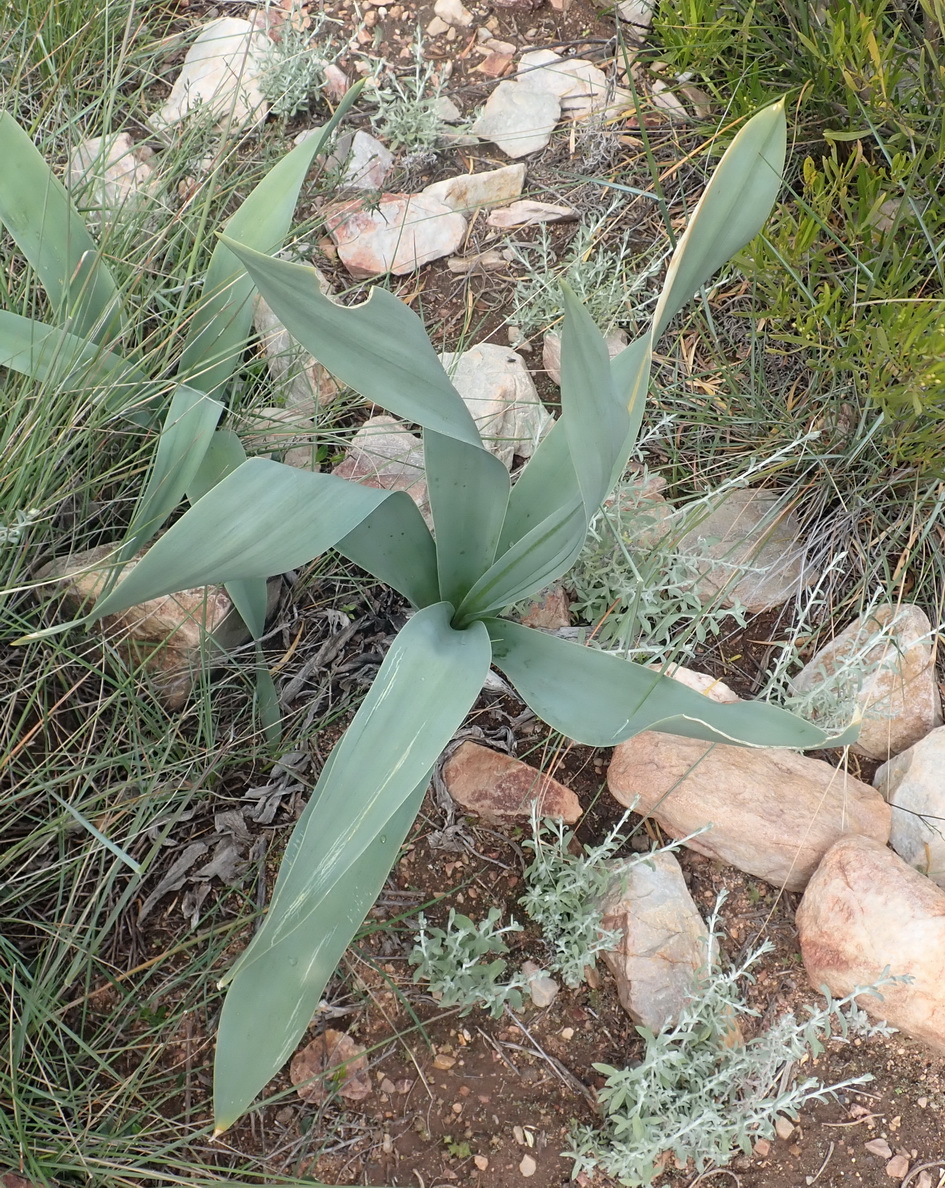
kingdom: Plantae
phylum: Tracheophyta
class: Liliopsida
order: Asparagales
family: Asparagaceae
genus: Drimia
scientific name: Drimia capensis
